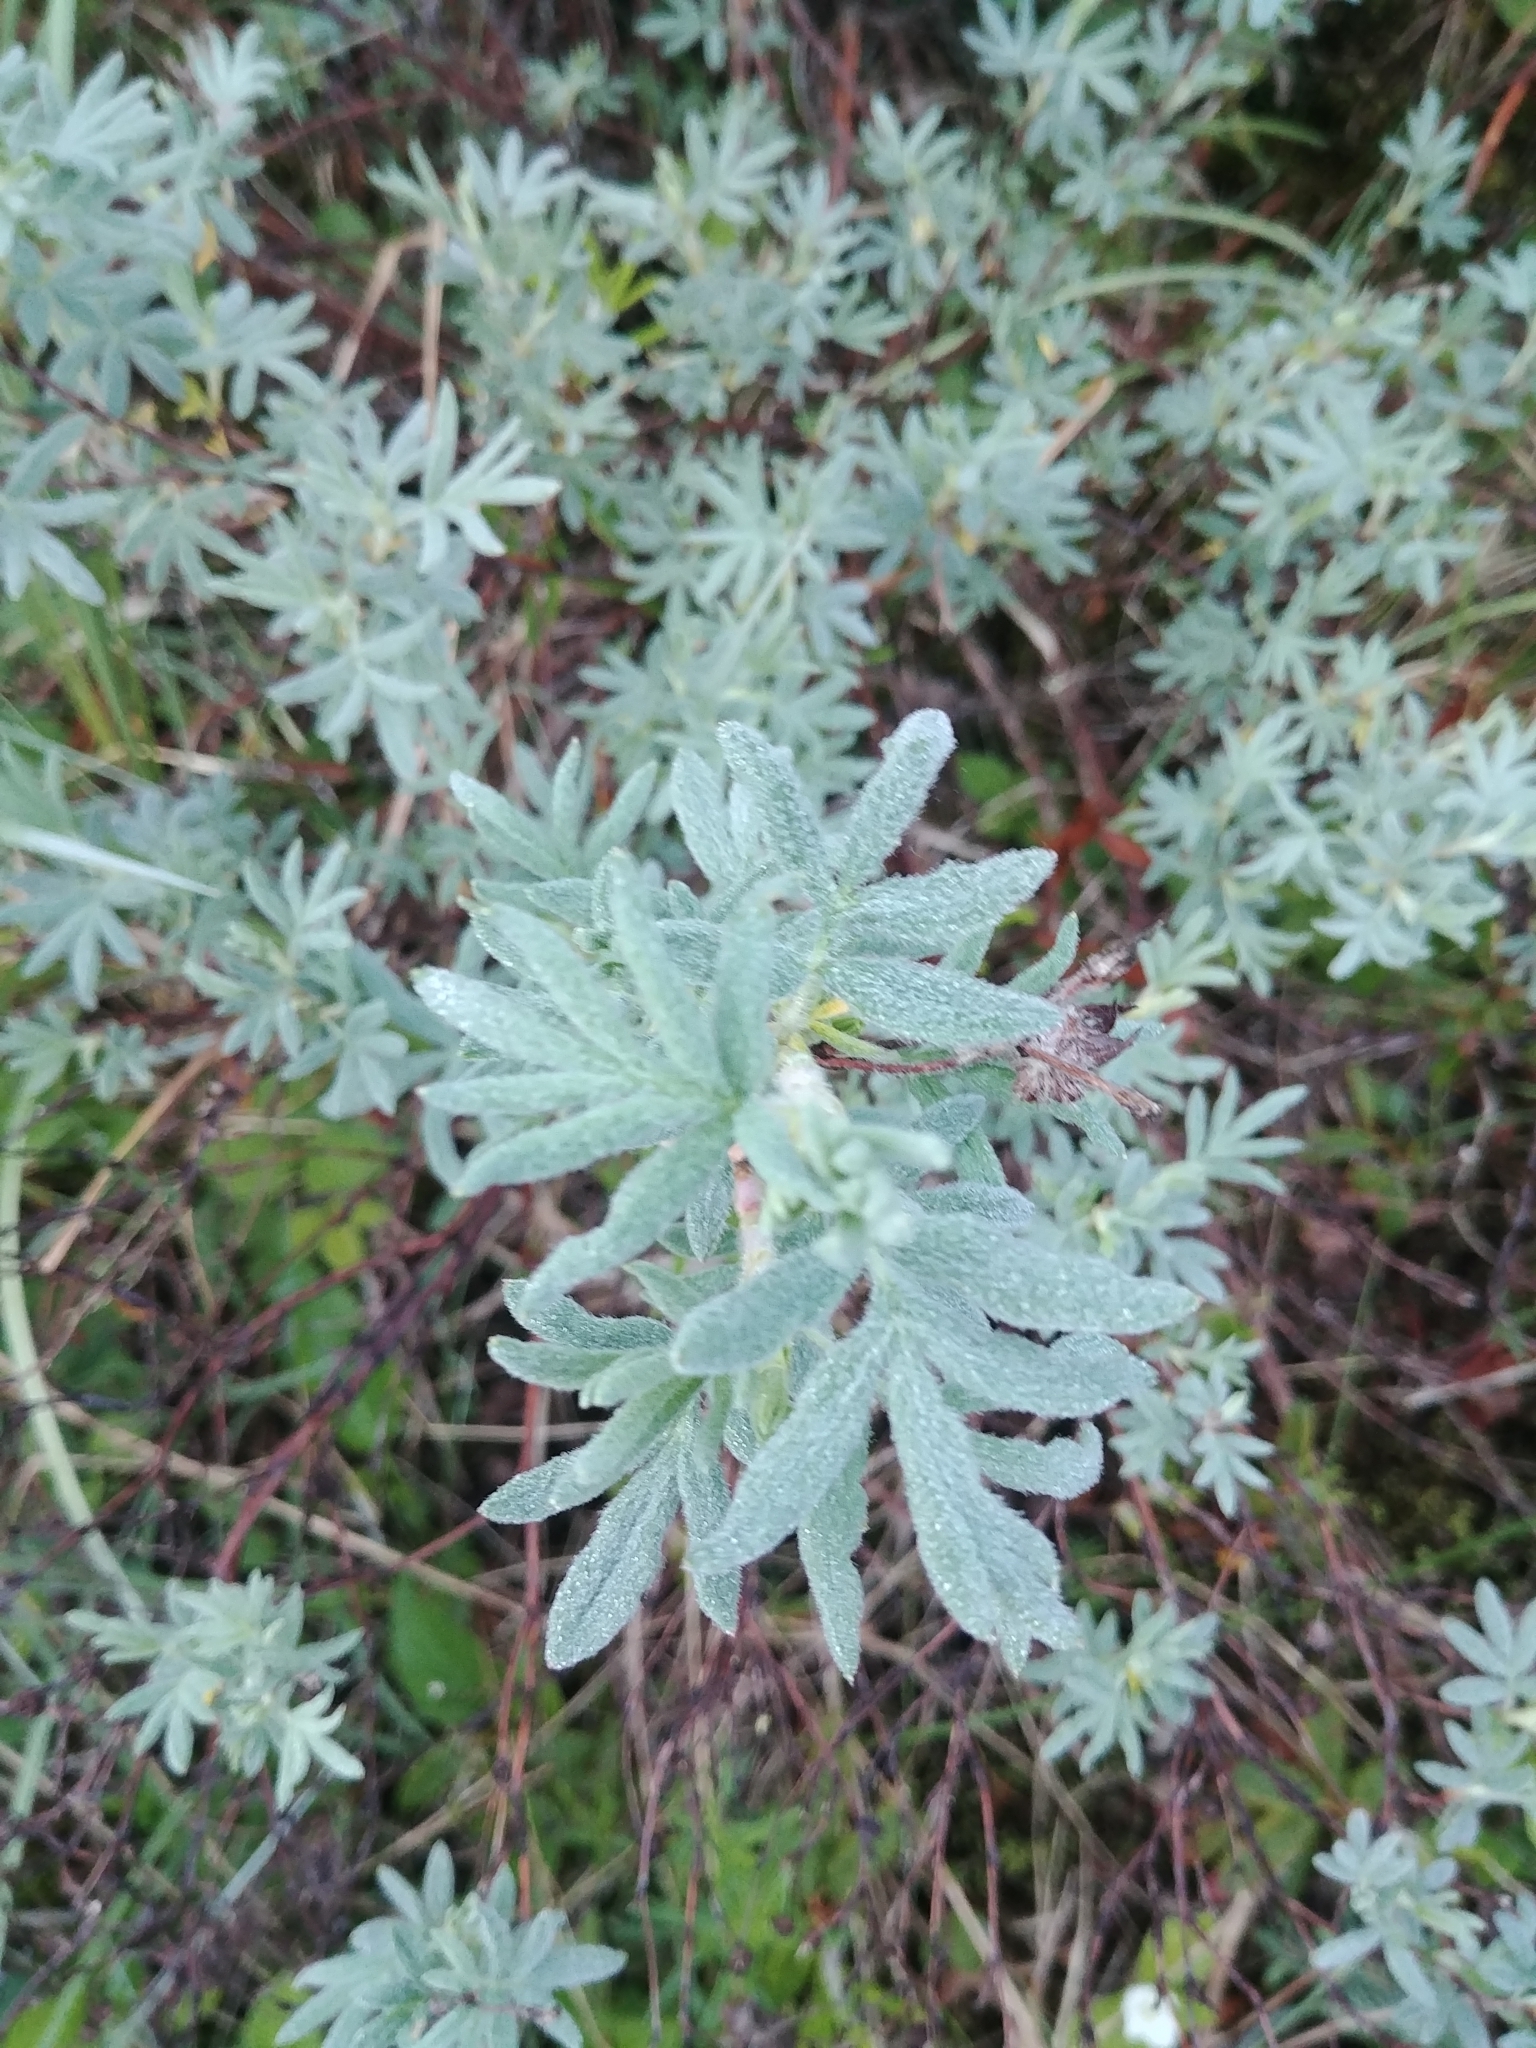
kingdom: Plantae
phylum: Tracheophyta
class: Magnoliopsida
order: Rosales
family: Rosaceae
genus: Dasiphora
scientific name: Dasiphora fruticosa
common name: Shrubby cinquefoil
